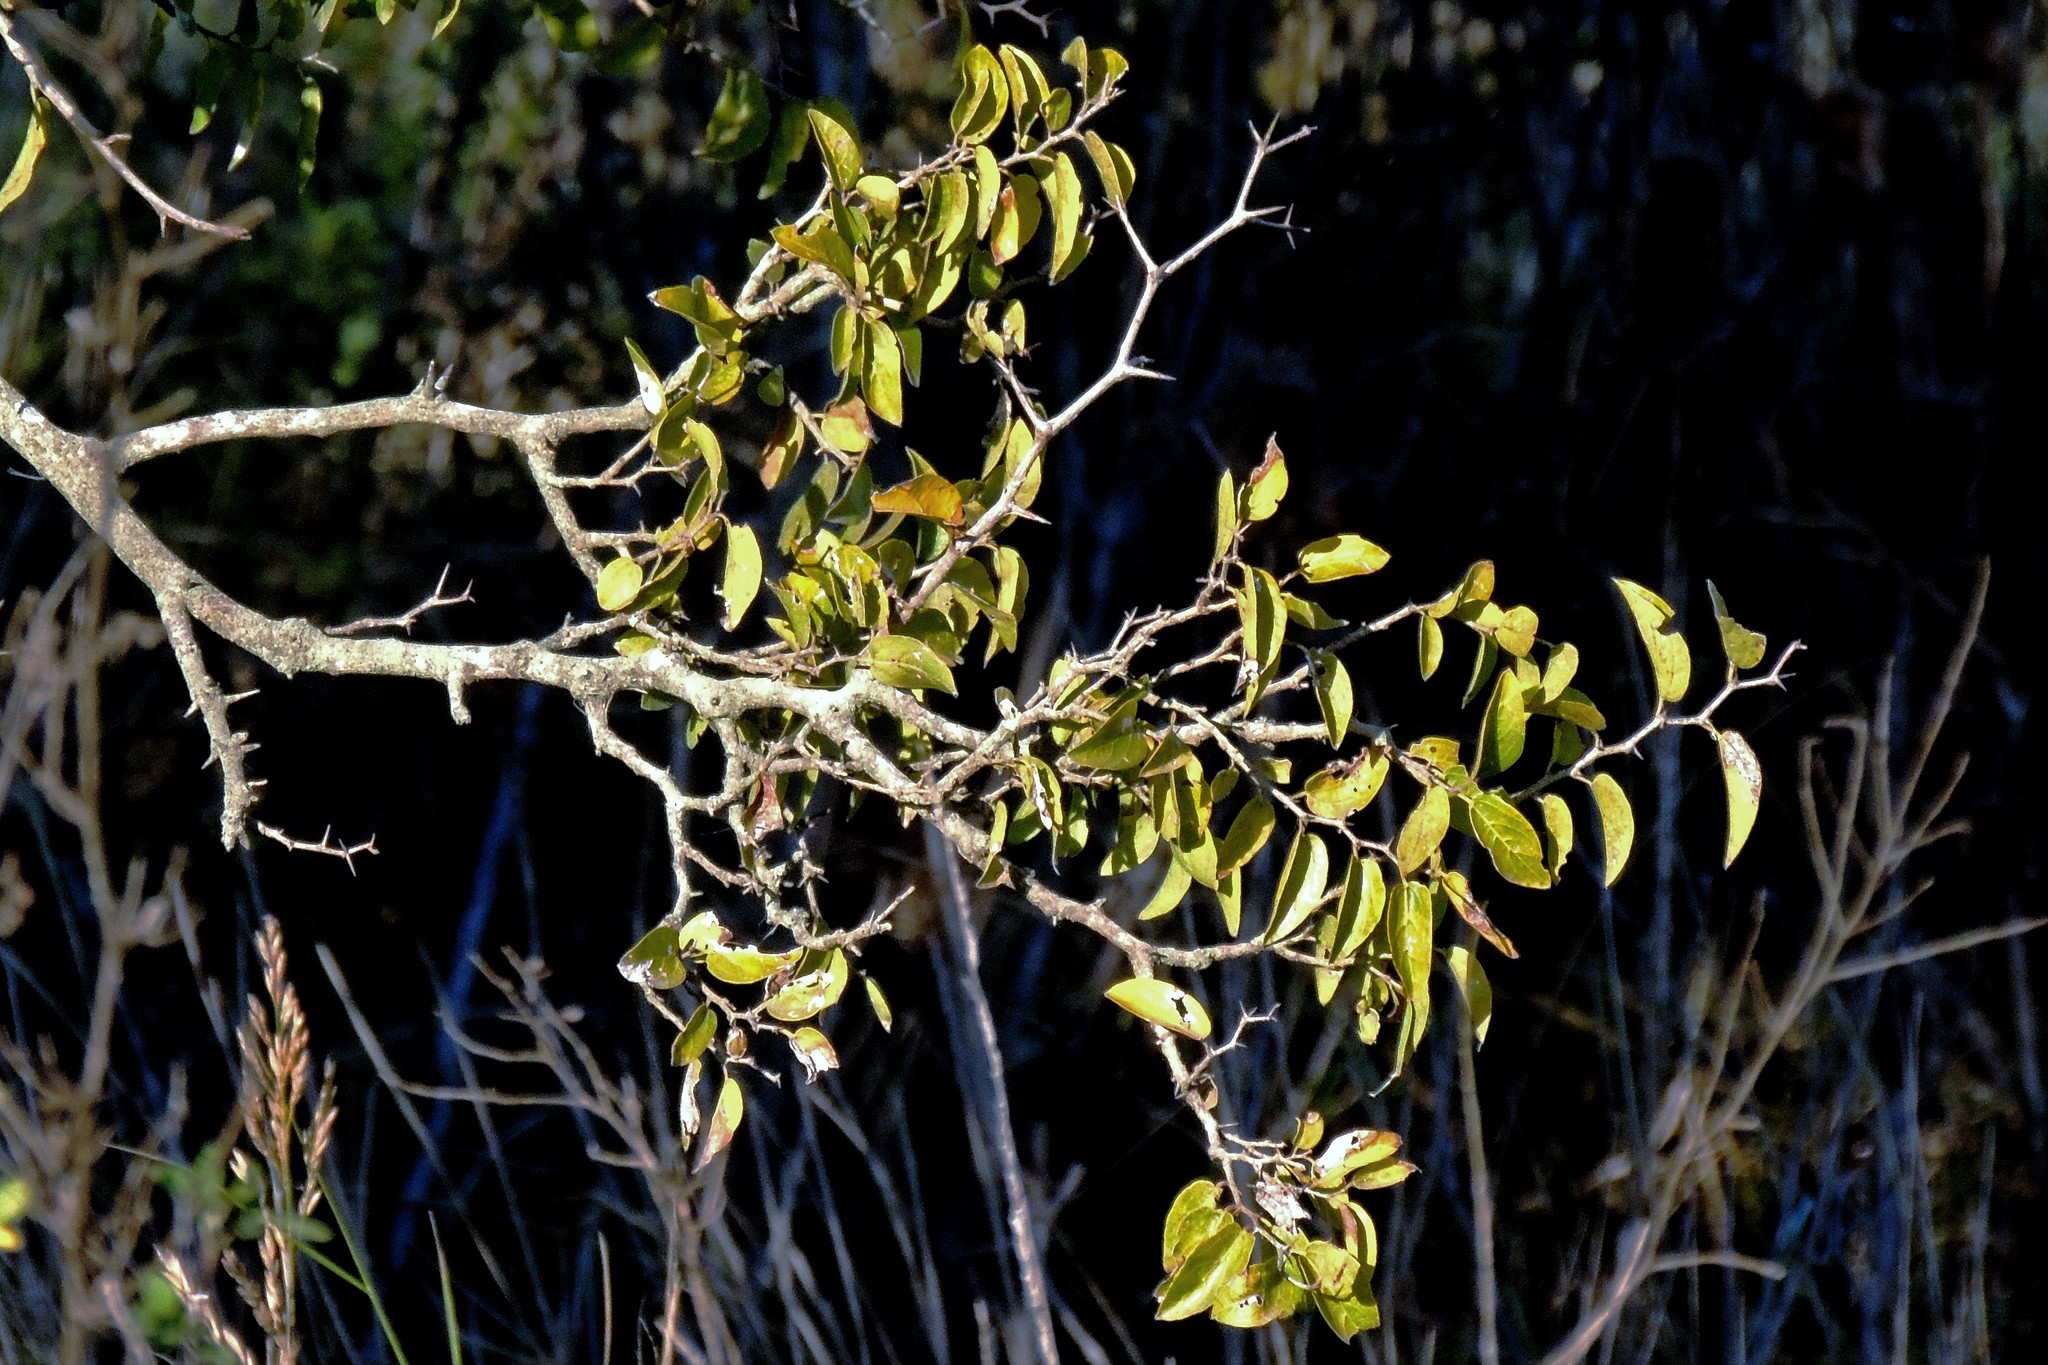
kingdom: Plantae
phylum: Tracheophyta
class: Magnoliopsida
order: Rosales
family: Cannabaceae
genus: Celtis
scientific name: Celtis tala
